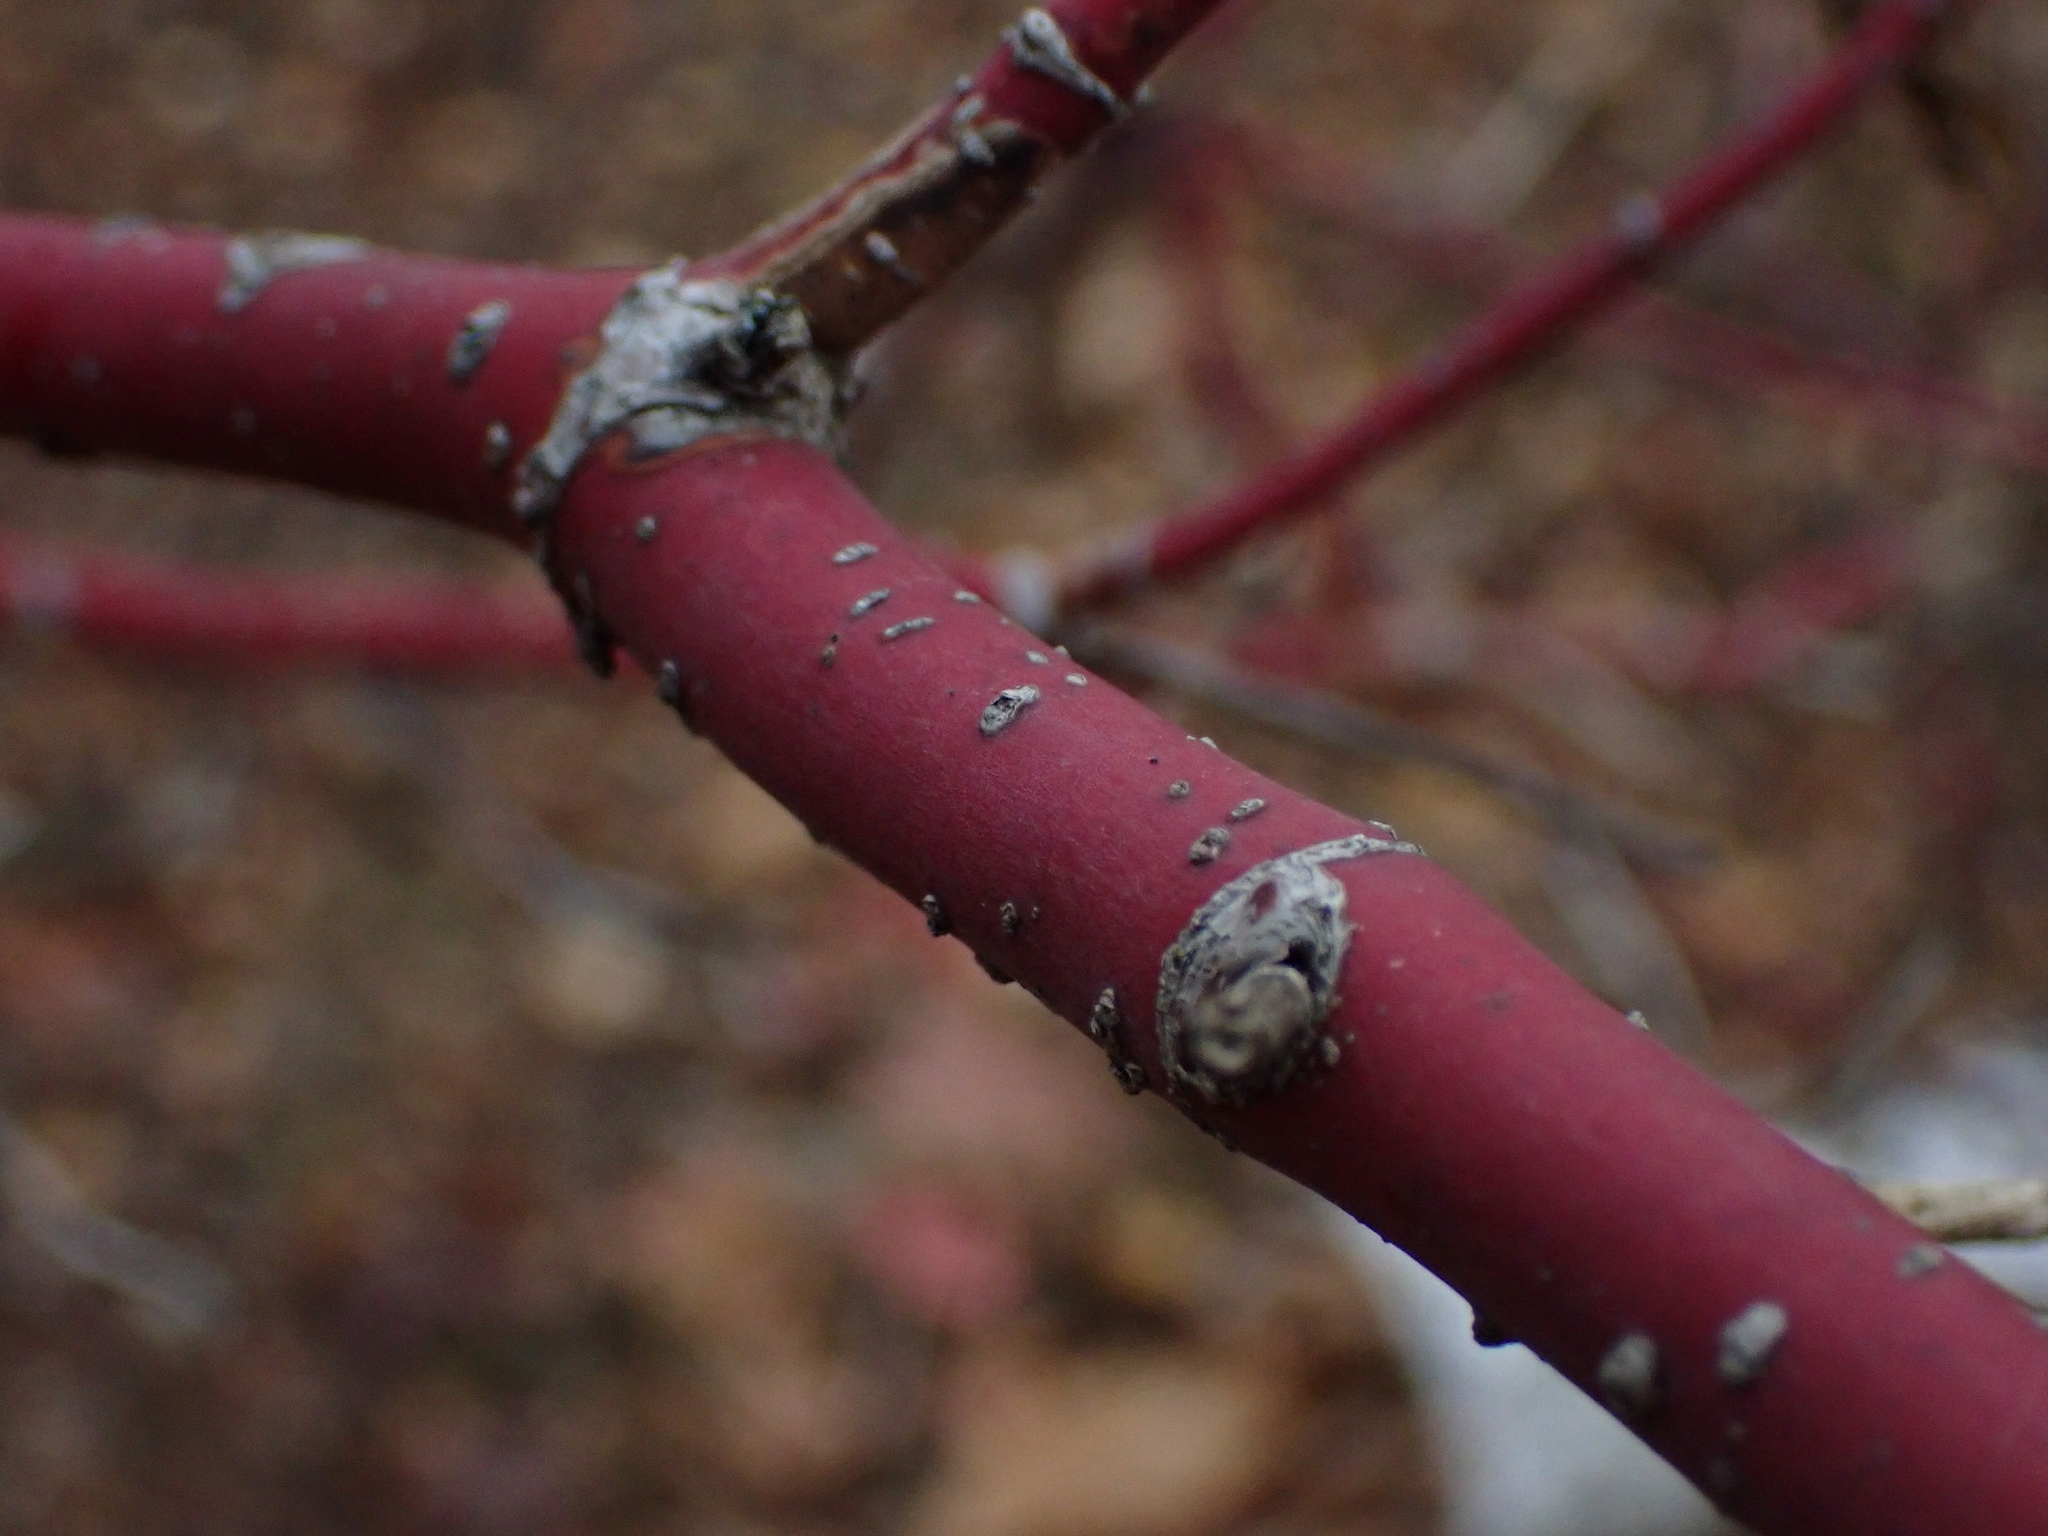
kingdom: Plantae
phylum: Tracheophyta
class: Magnoliopsida
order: Cornales
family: Cornaceae
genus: Cornus
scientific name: Cornus sericea
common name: Red-osier dogwood
